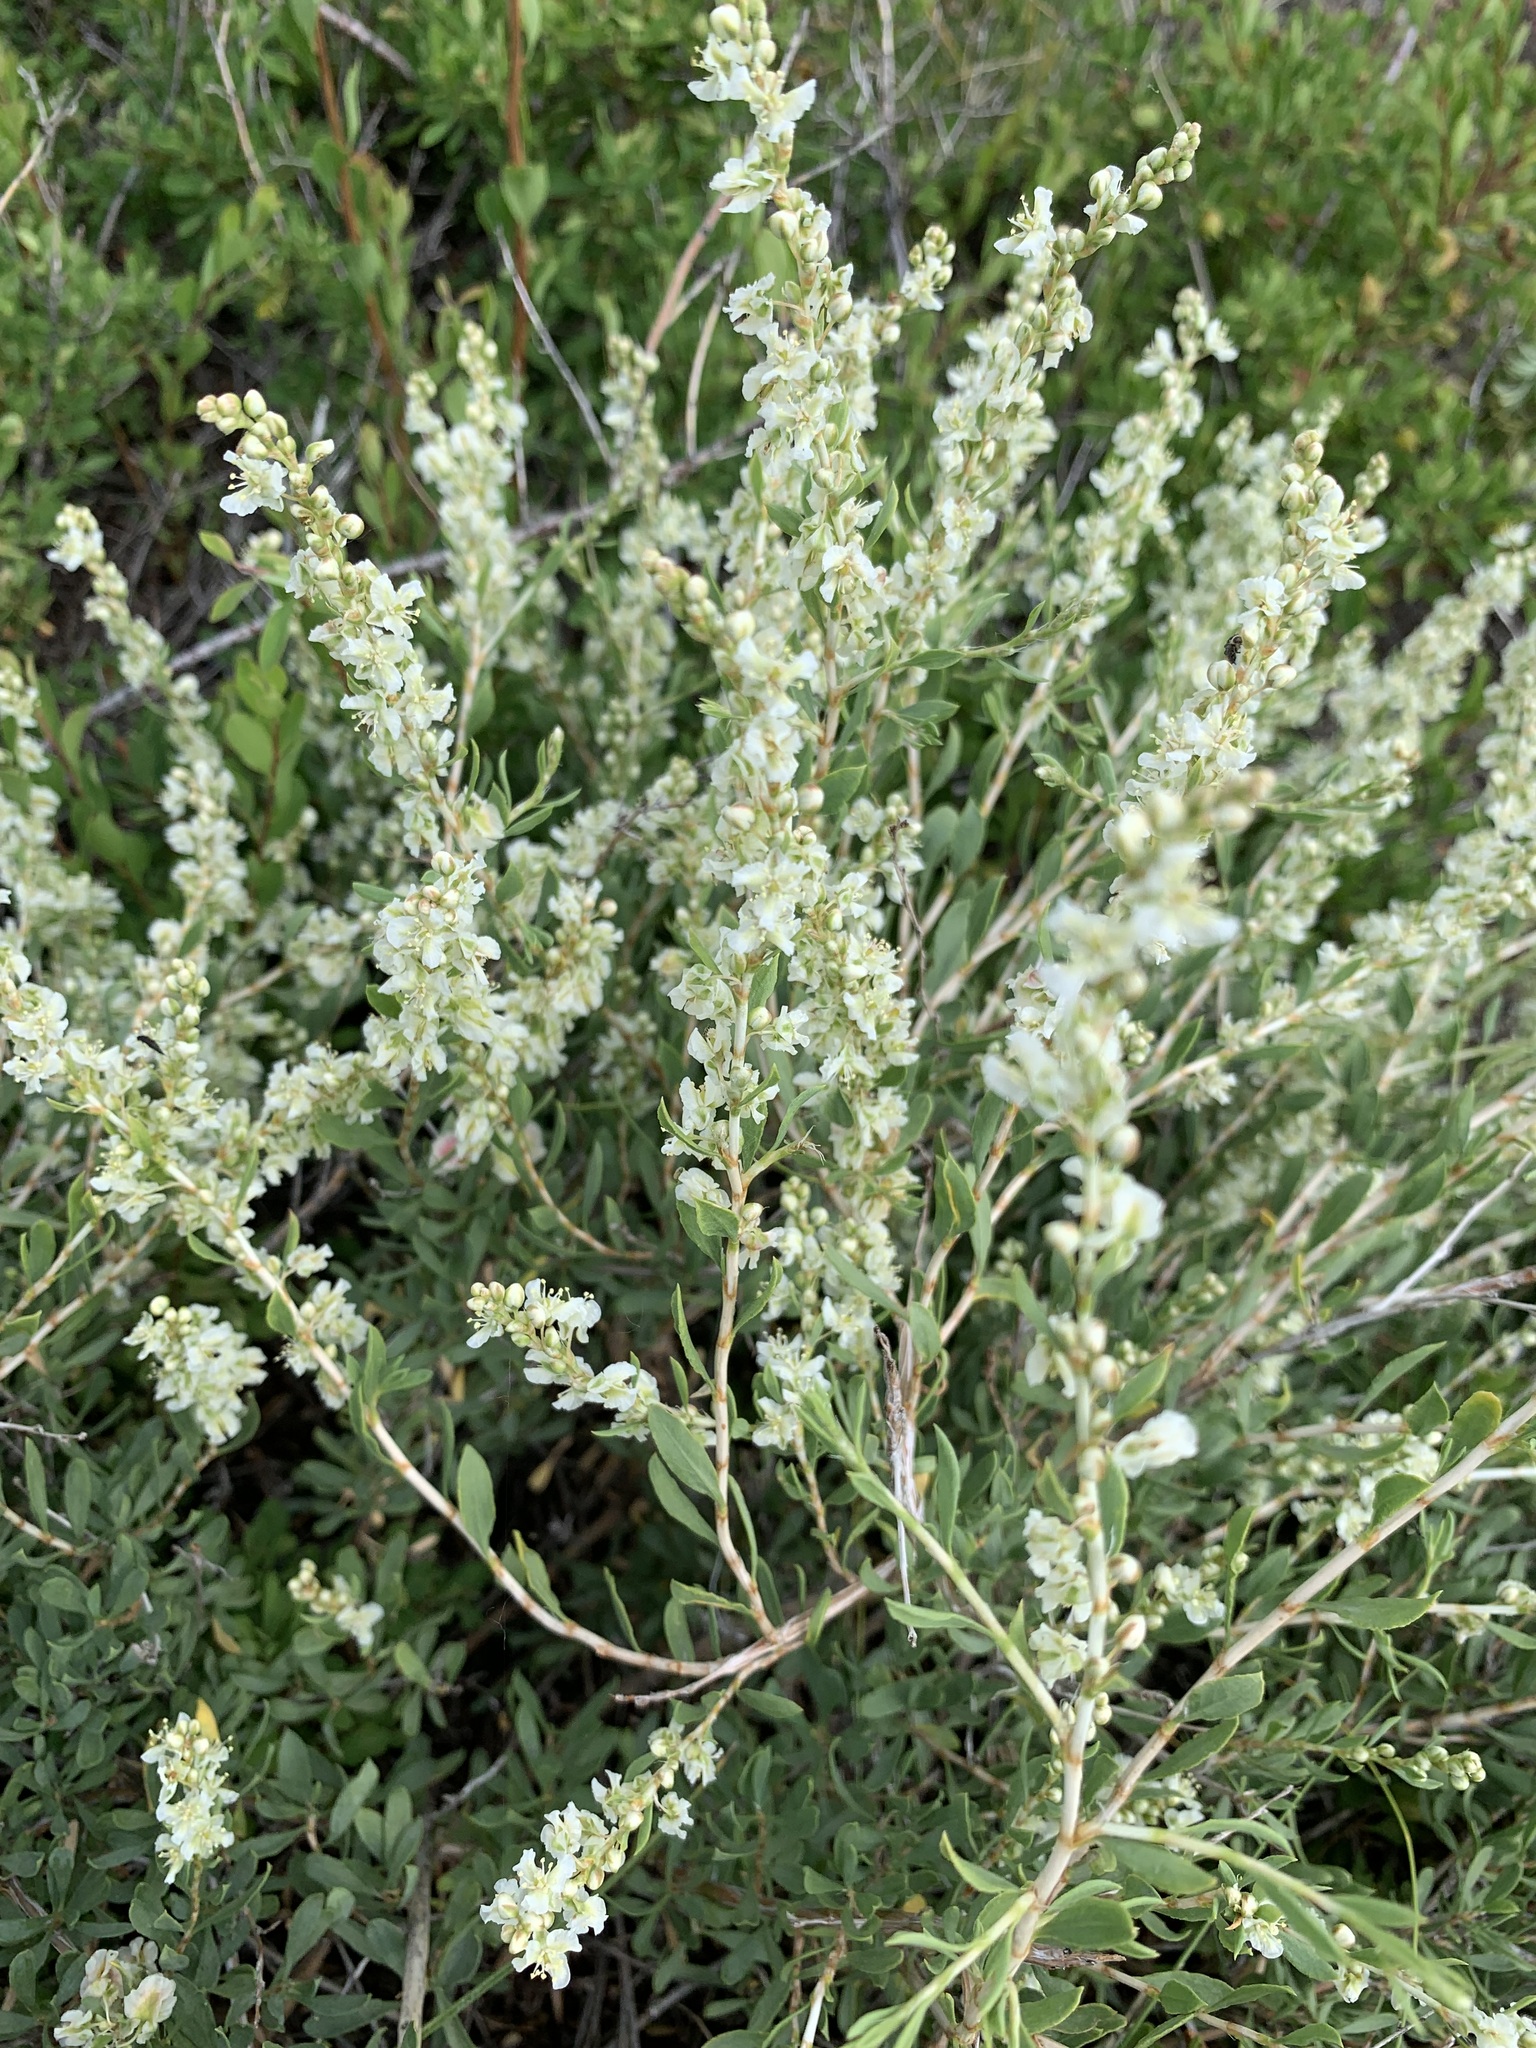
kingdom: Plantae
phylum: Tracheophyta
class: Magnoliopsida
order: Caryophyllales
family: Polygonaceae
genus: Atraphaxis
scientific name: Atraphaxis frutescens
